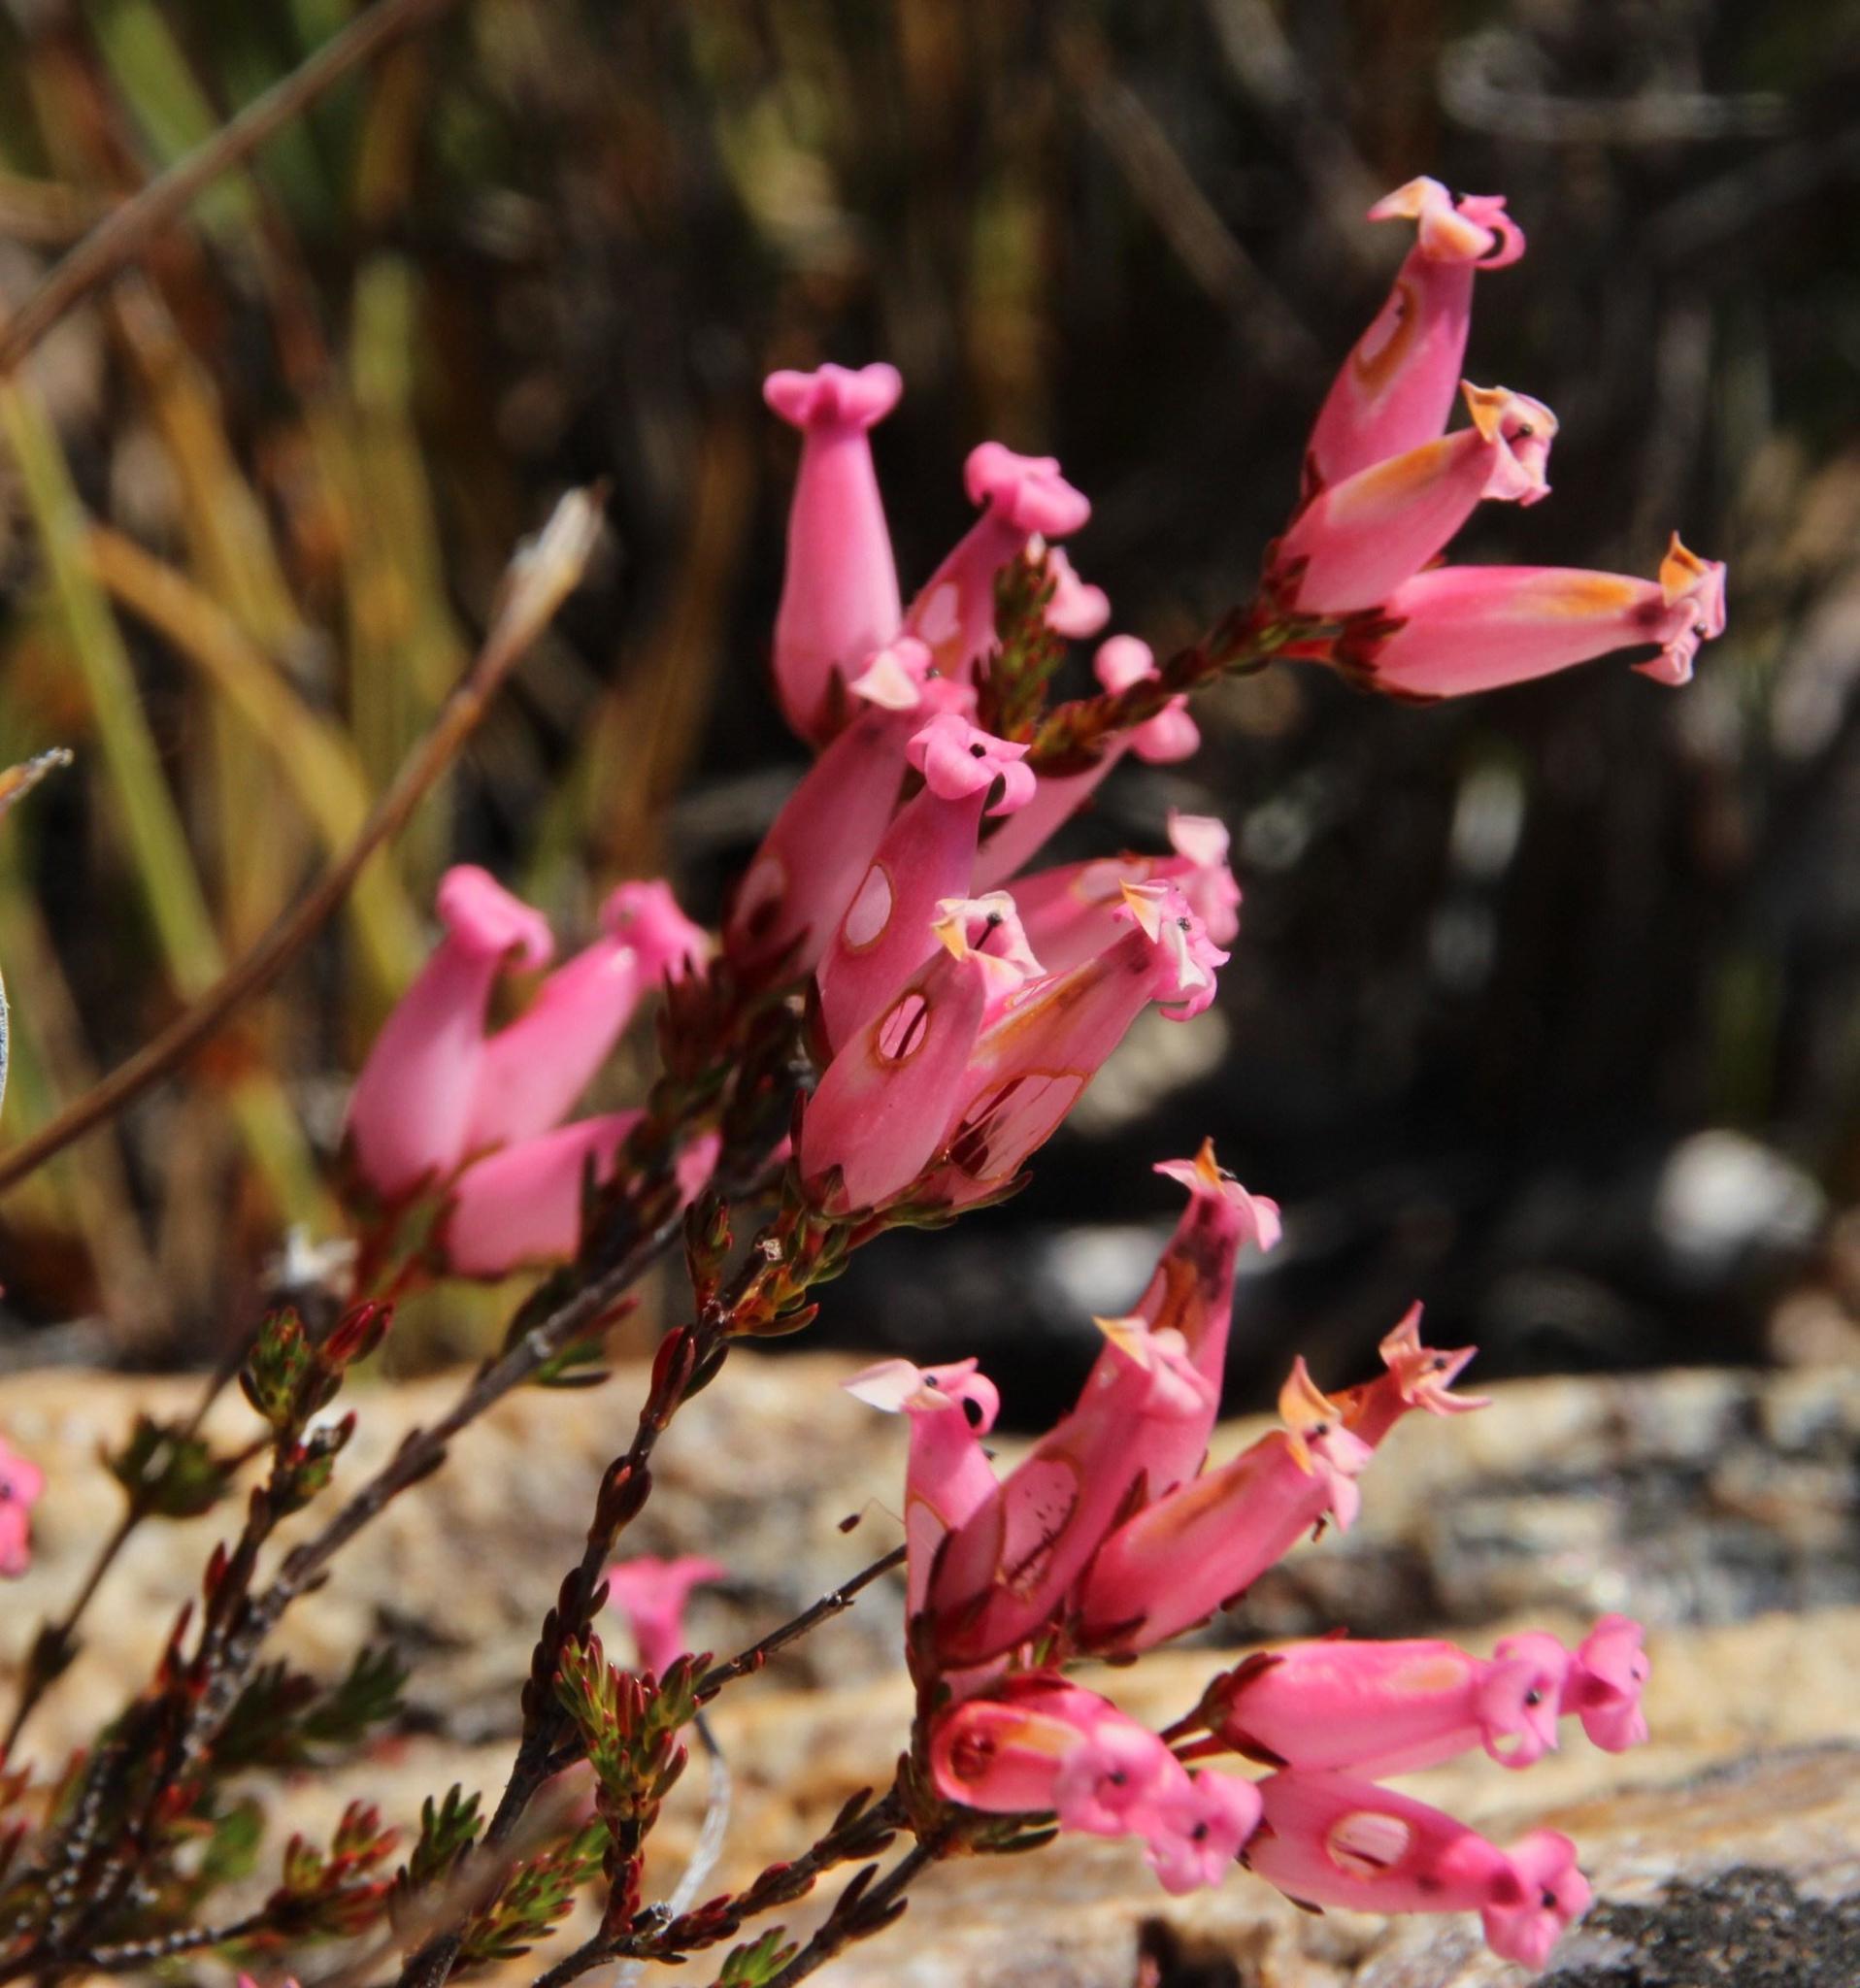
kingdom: Plantae
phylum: Tracheophyta
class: Magnoliopsida
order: Ericales
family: Ericaceae
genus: Erica
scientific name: Erica daphniflora
